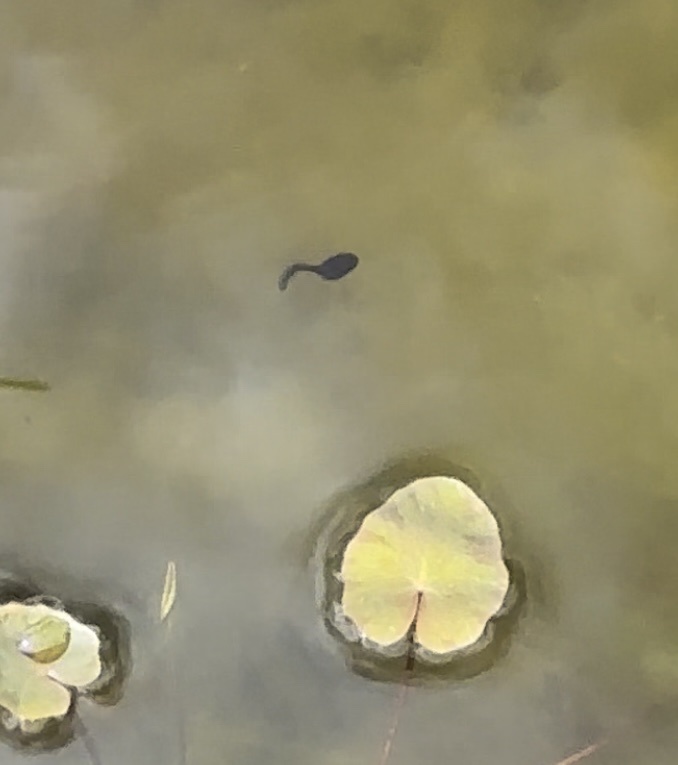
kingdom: Animalia
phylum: Chordata
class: Amphibia
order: Anura
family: Bufonidae
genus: Bufo
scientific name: Bufo bufo
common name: Common toad
